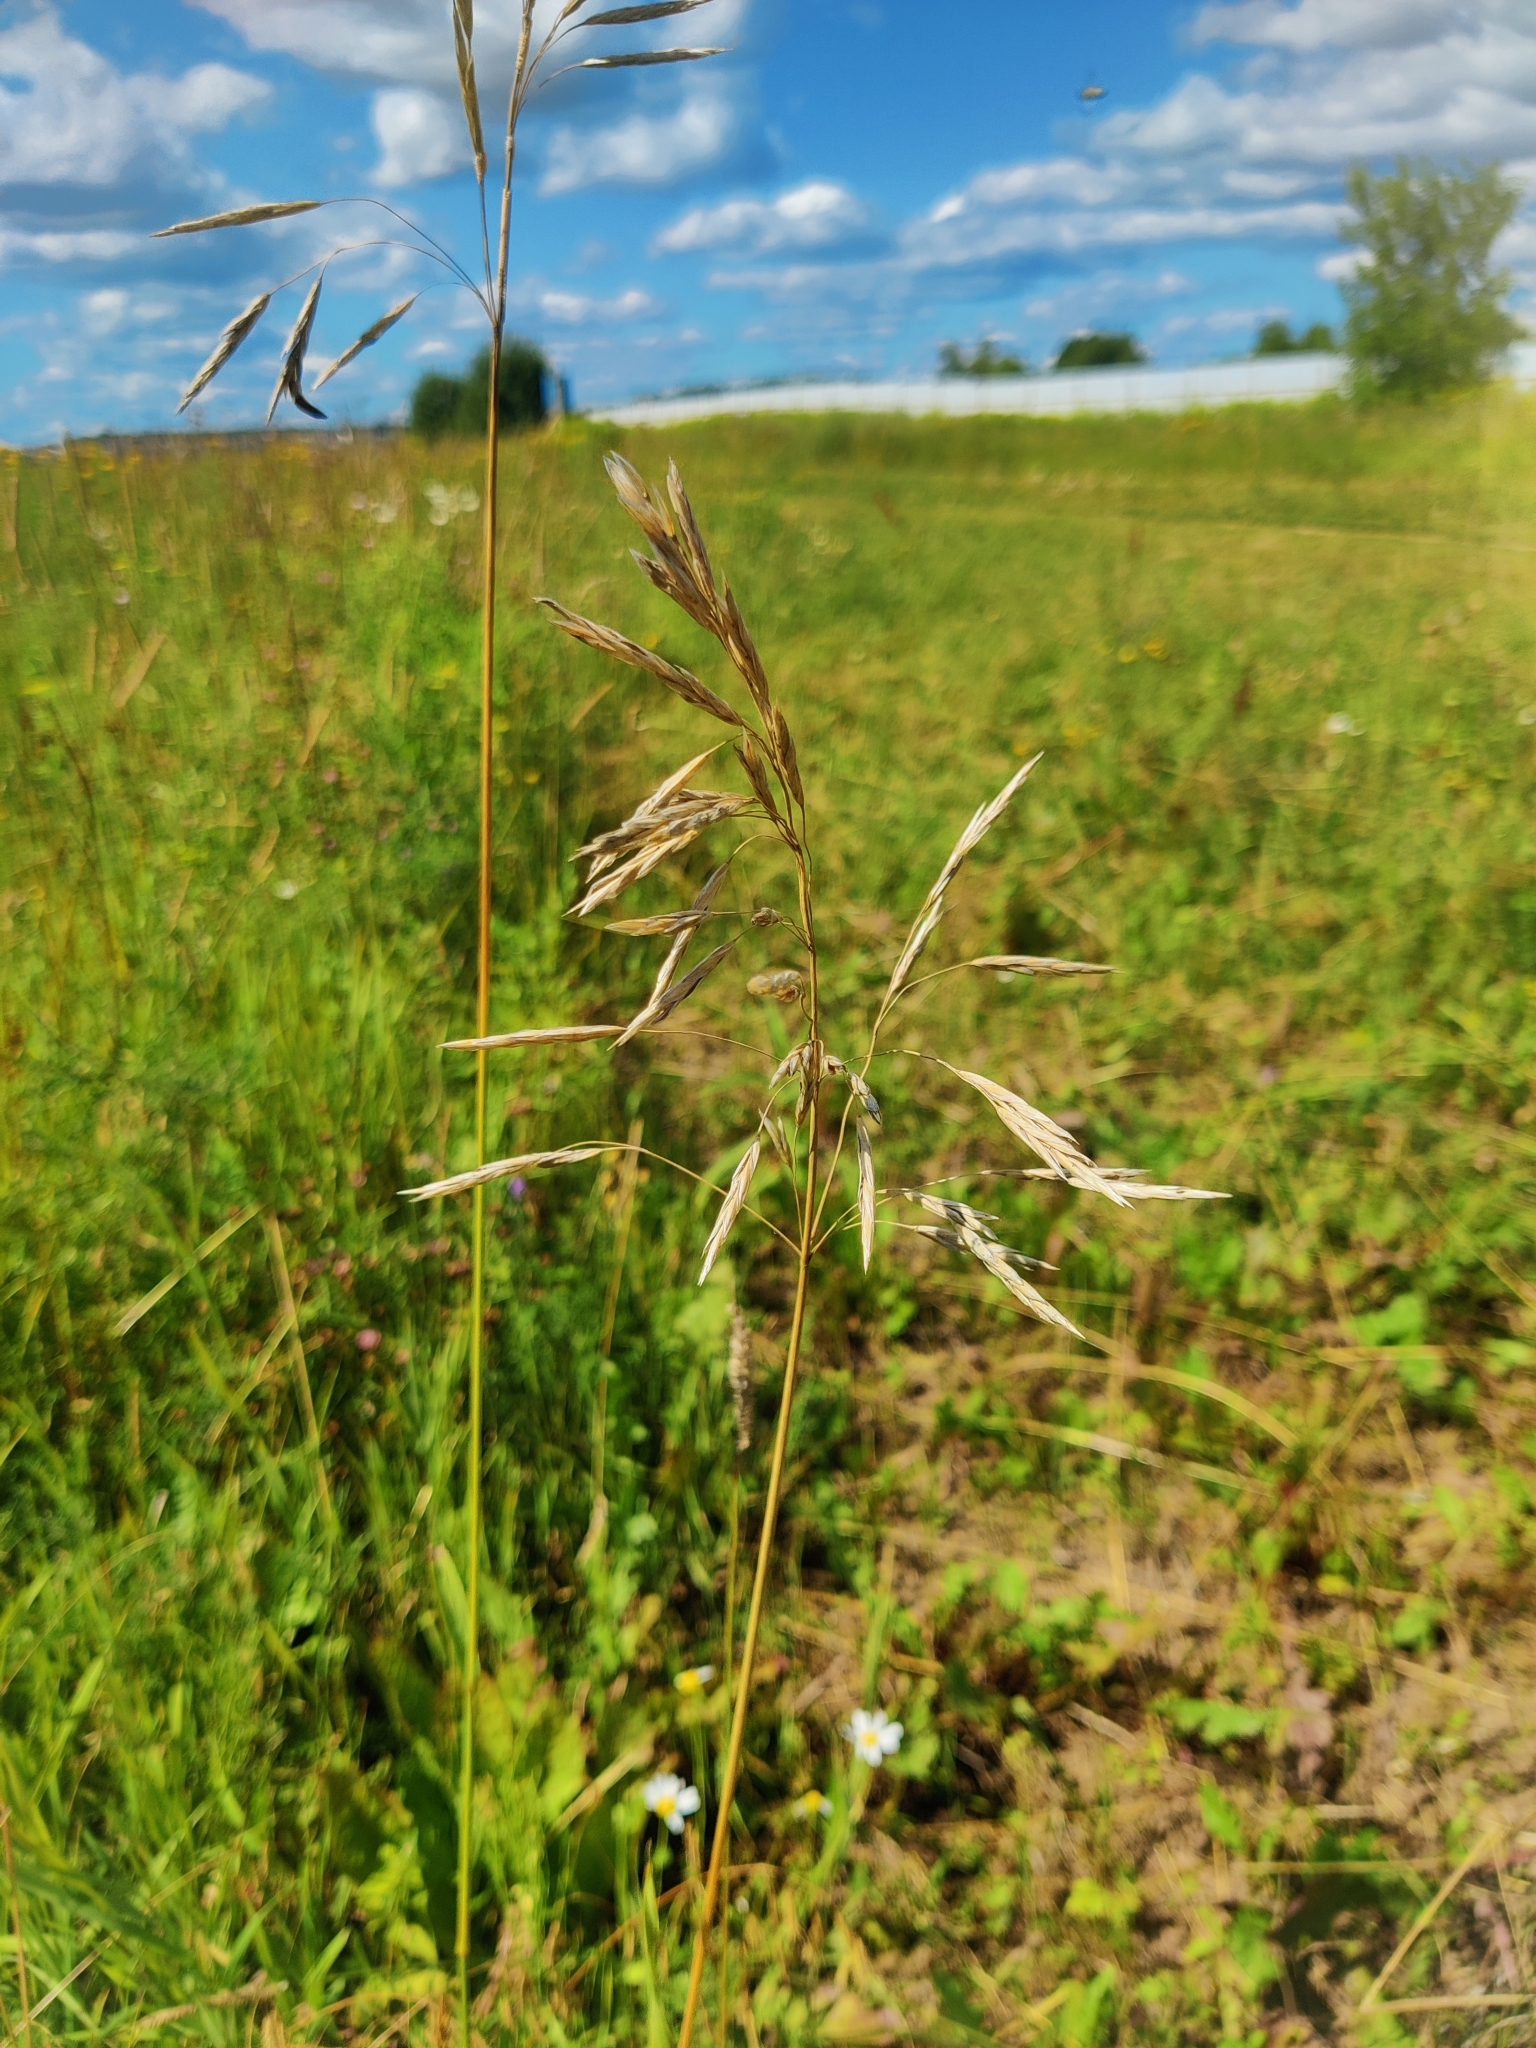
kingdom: Plantae
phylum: Tracheophyta
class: Liliopsida
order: Poales
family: Poaceae
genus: Bromus
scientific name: Bromus inermis
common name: Smooth brome
